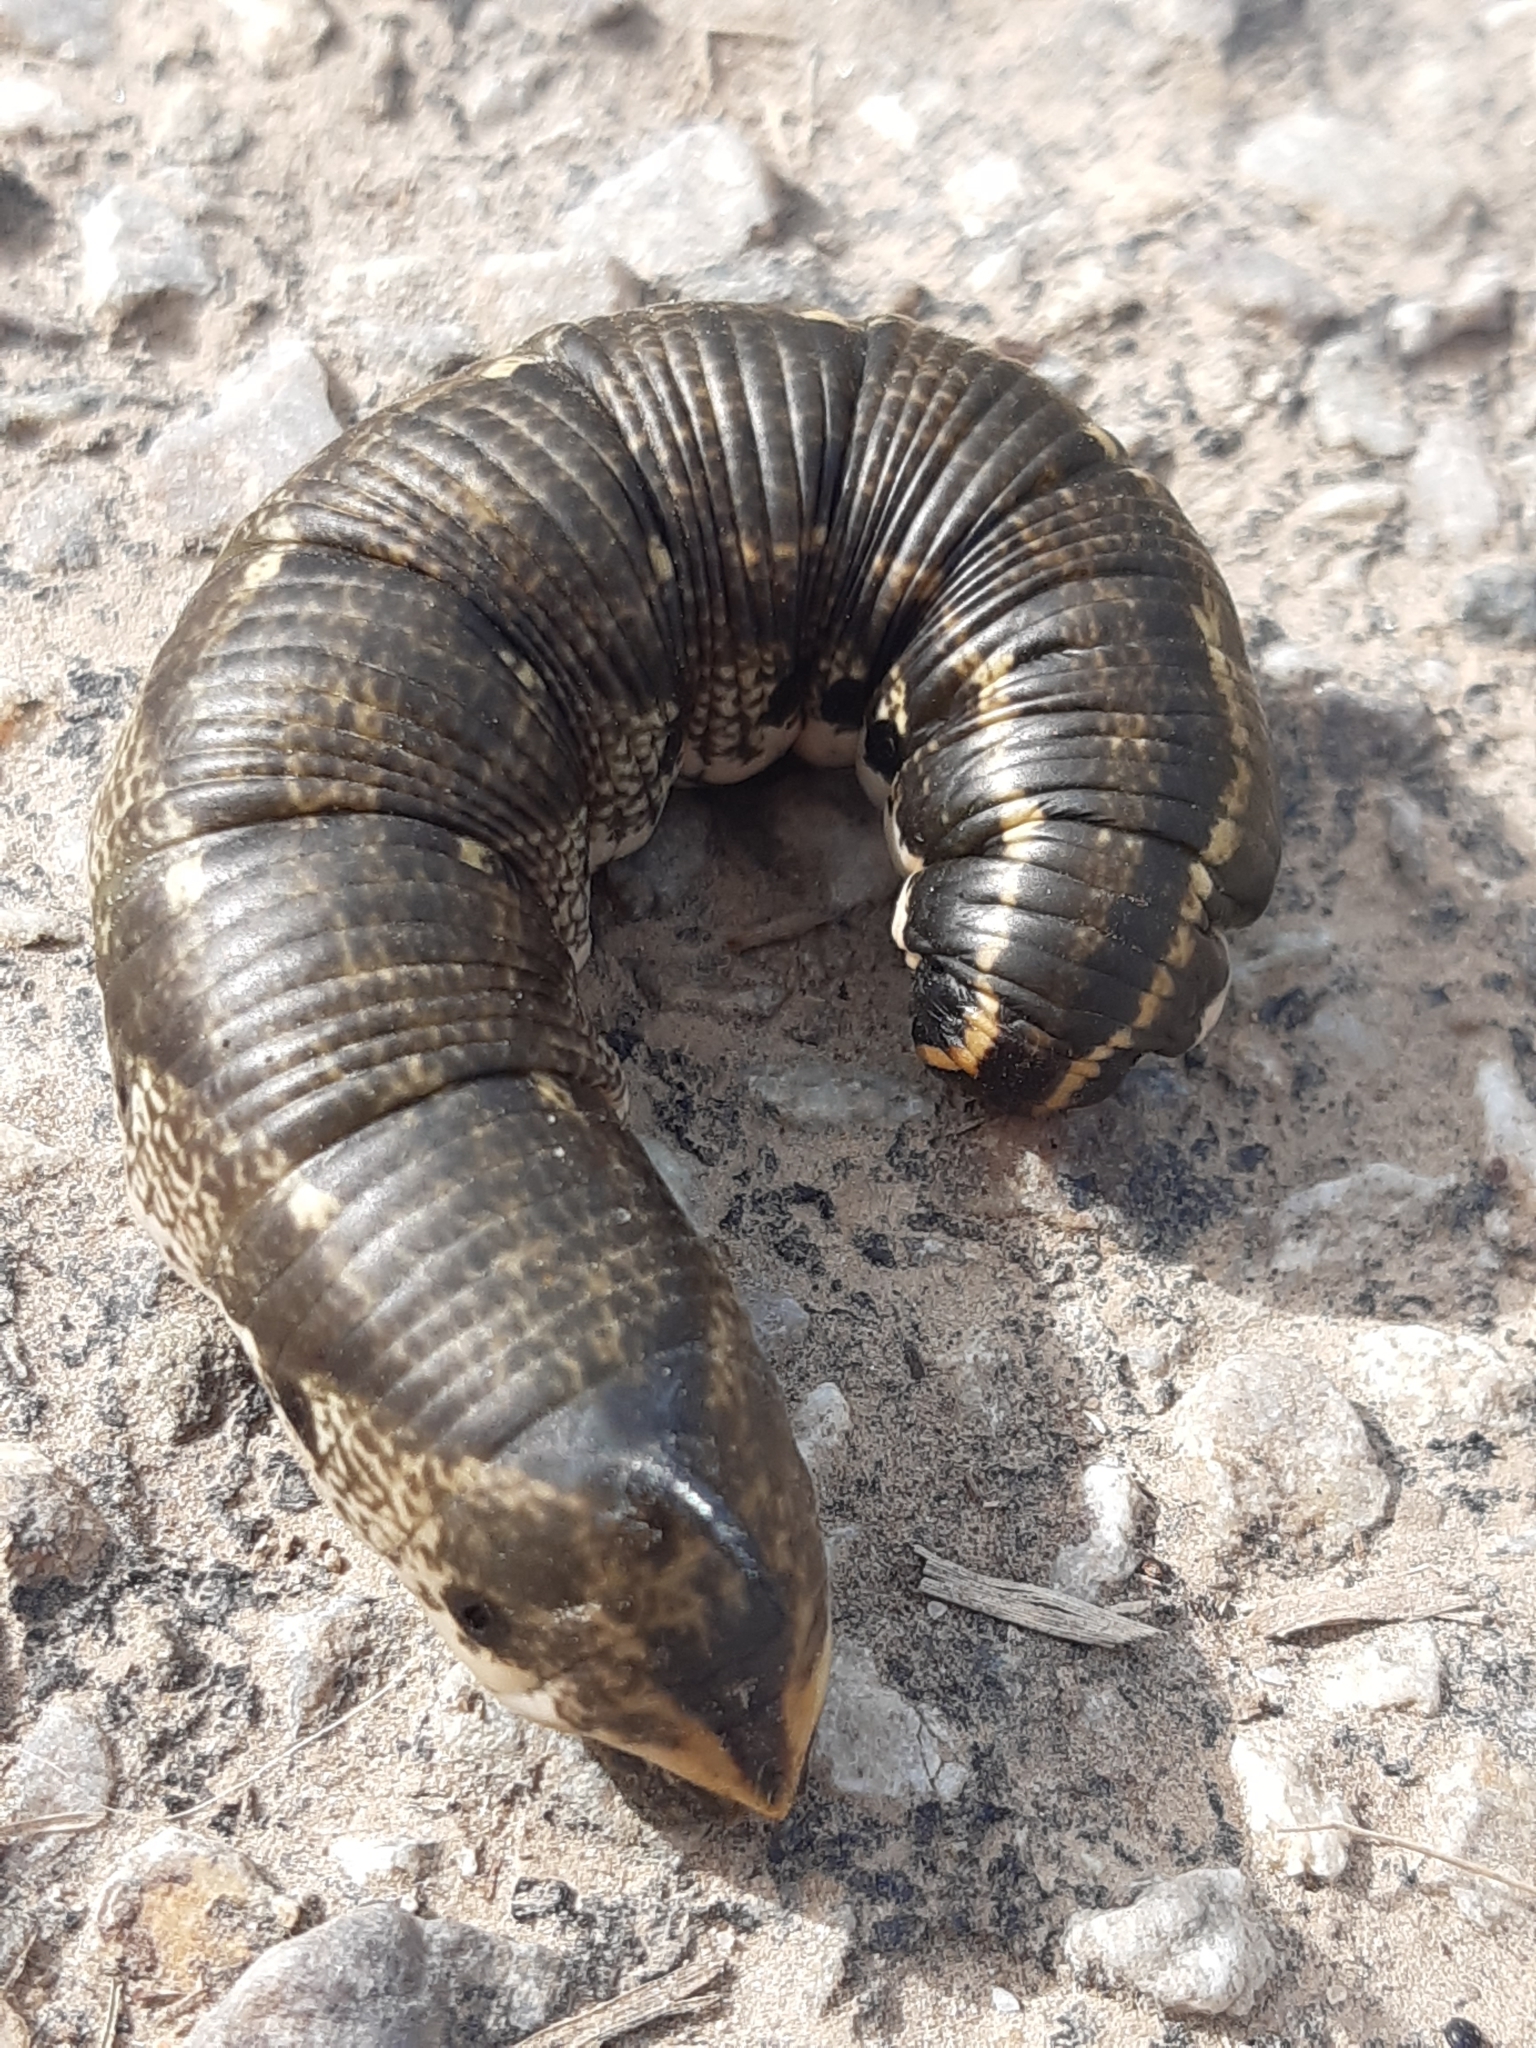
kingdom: Animalia
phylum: Arthropoda
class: Insecta
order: Lepidoptera
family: Sphingidae
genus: Agrius
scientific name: Agrius convolvuli
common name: Convolvulus hawkmoth
